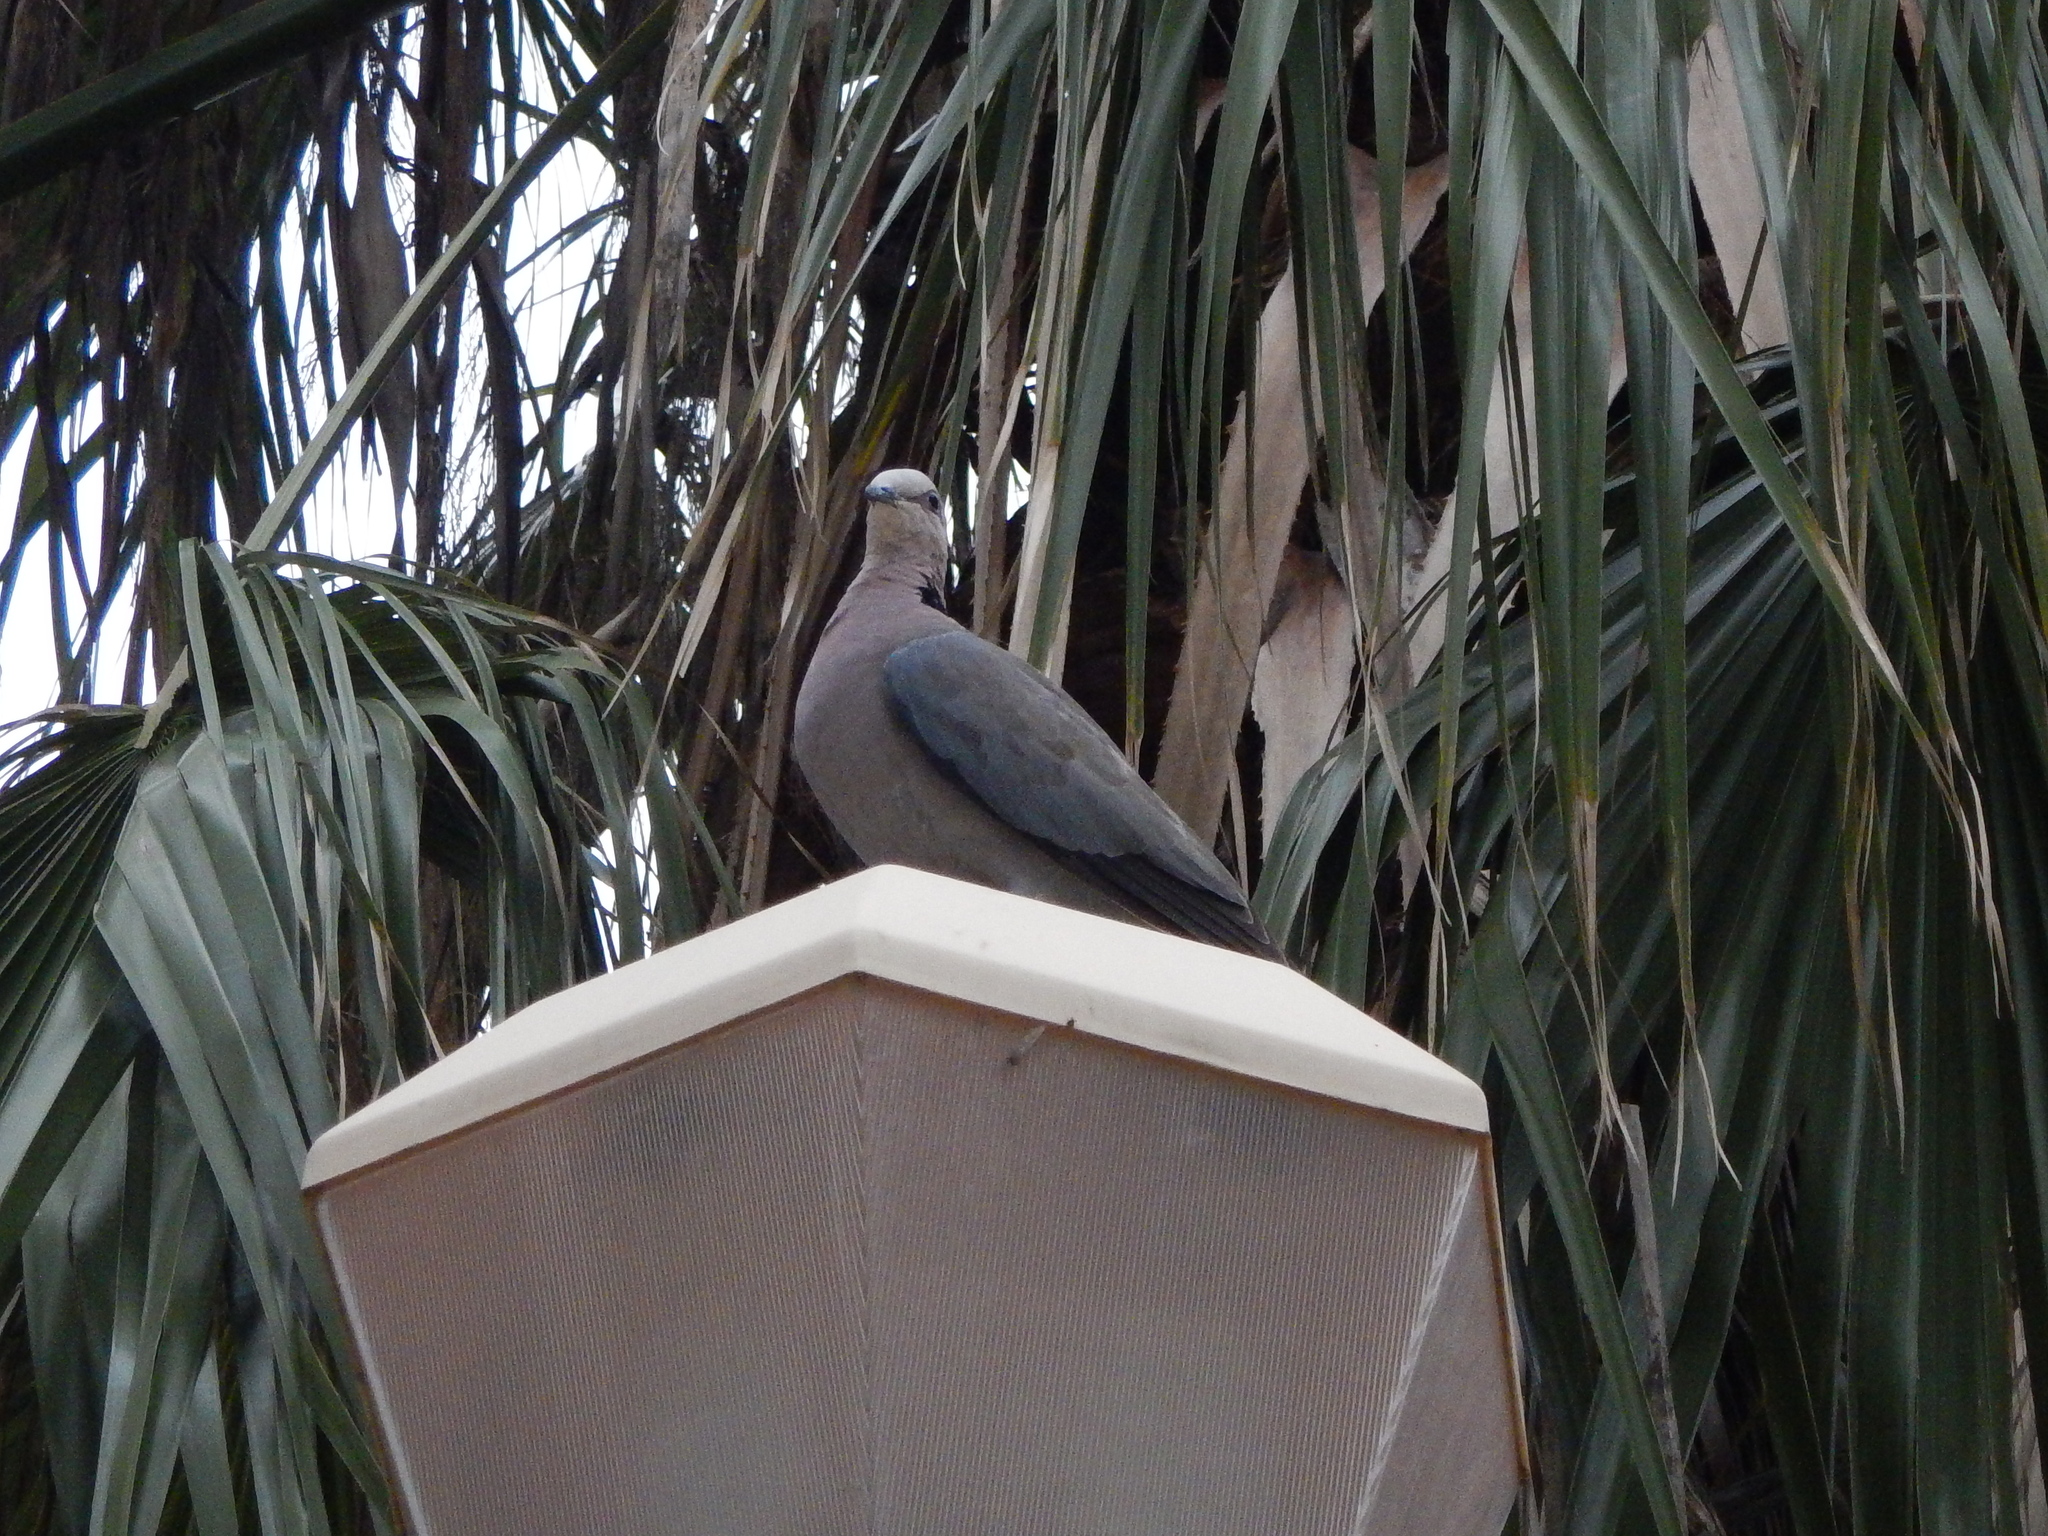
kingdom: Animalia
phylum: Chordata
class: Aves
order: Columbiformes
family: Columbidae
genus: Streptopelia
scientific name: Streptopelia semitorquata
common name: Red-eyed dove
